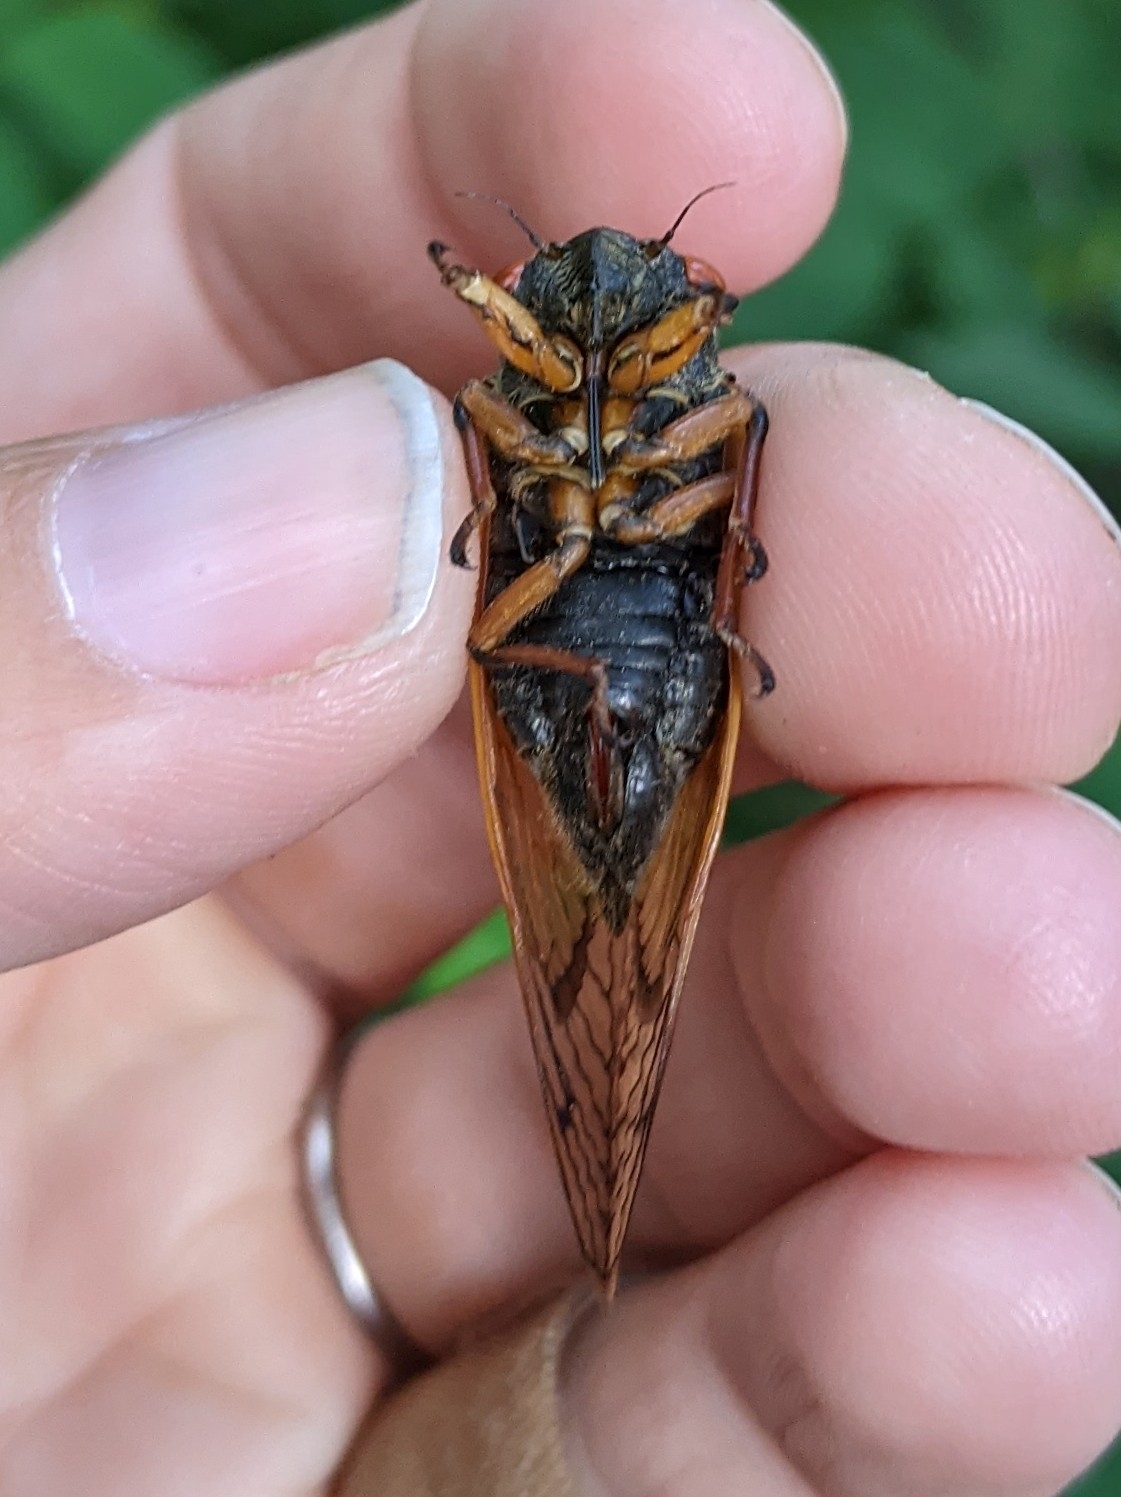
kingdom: Animalia
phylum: Arthropoda
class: Insecta
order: Hemiptera
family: Cicadidae
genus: Magicicada
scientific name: Magicicada cassini
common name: Cassin's 17-year cicada
